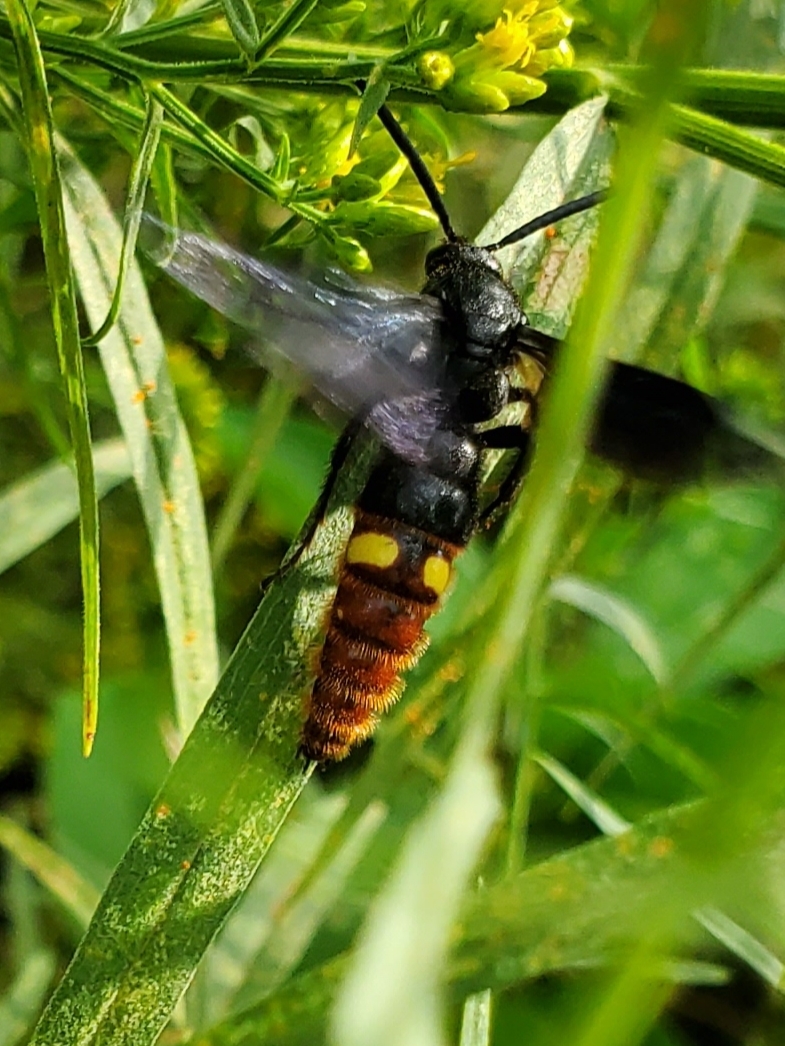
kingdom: Animalia
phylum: Arthropoda
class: Insecta
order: Hymenoptera
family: Scoliidae
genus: Scolia
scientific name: Scolia dubia
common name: Blue-winged scoliid wasp
